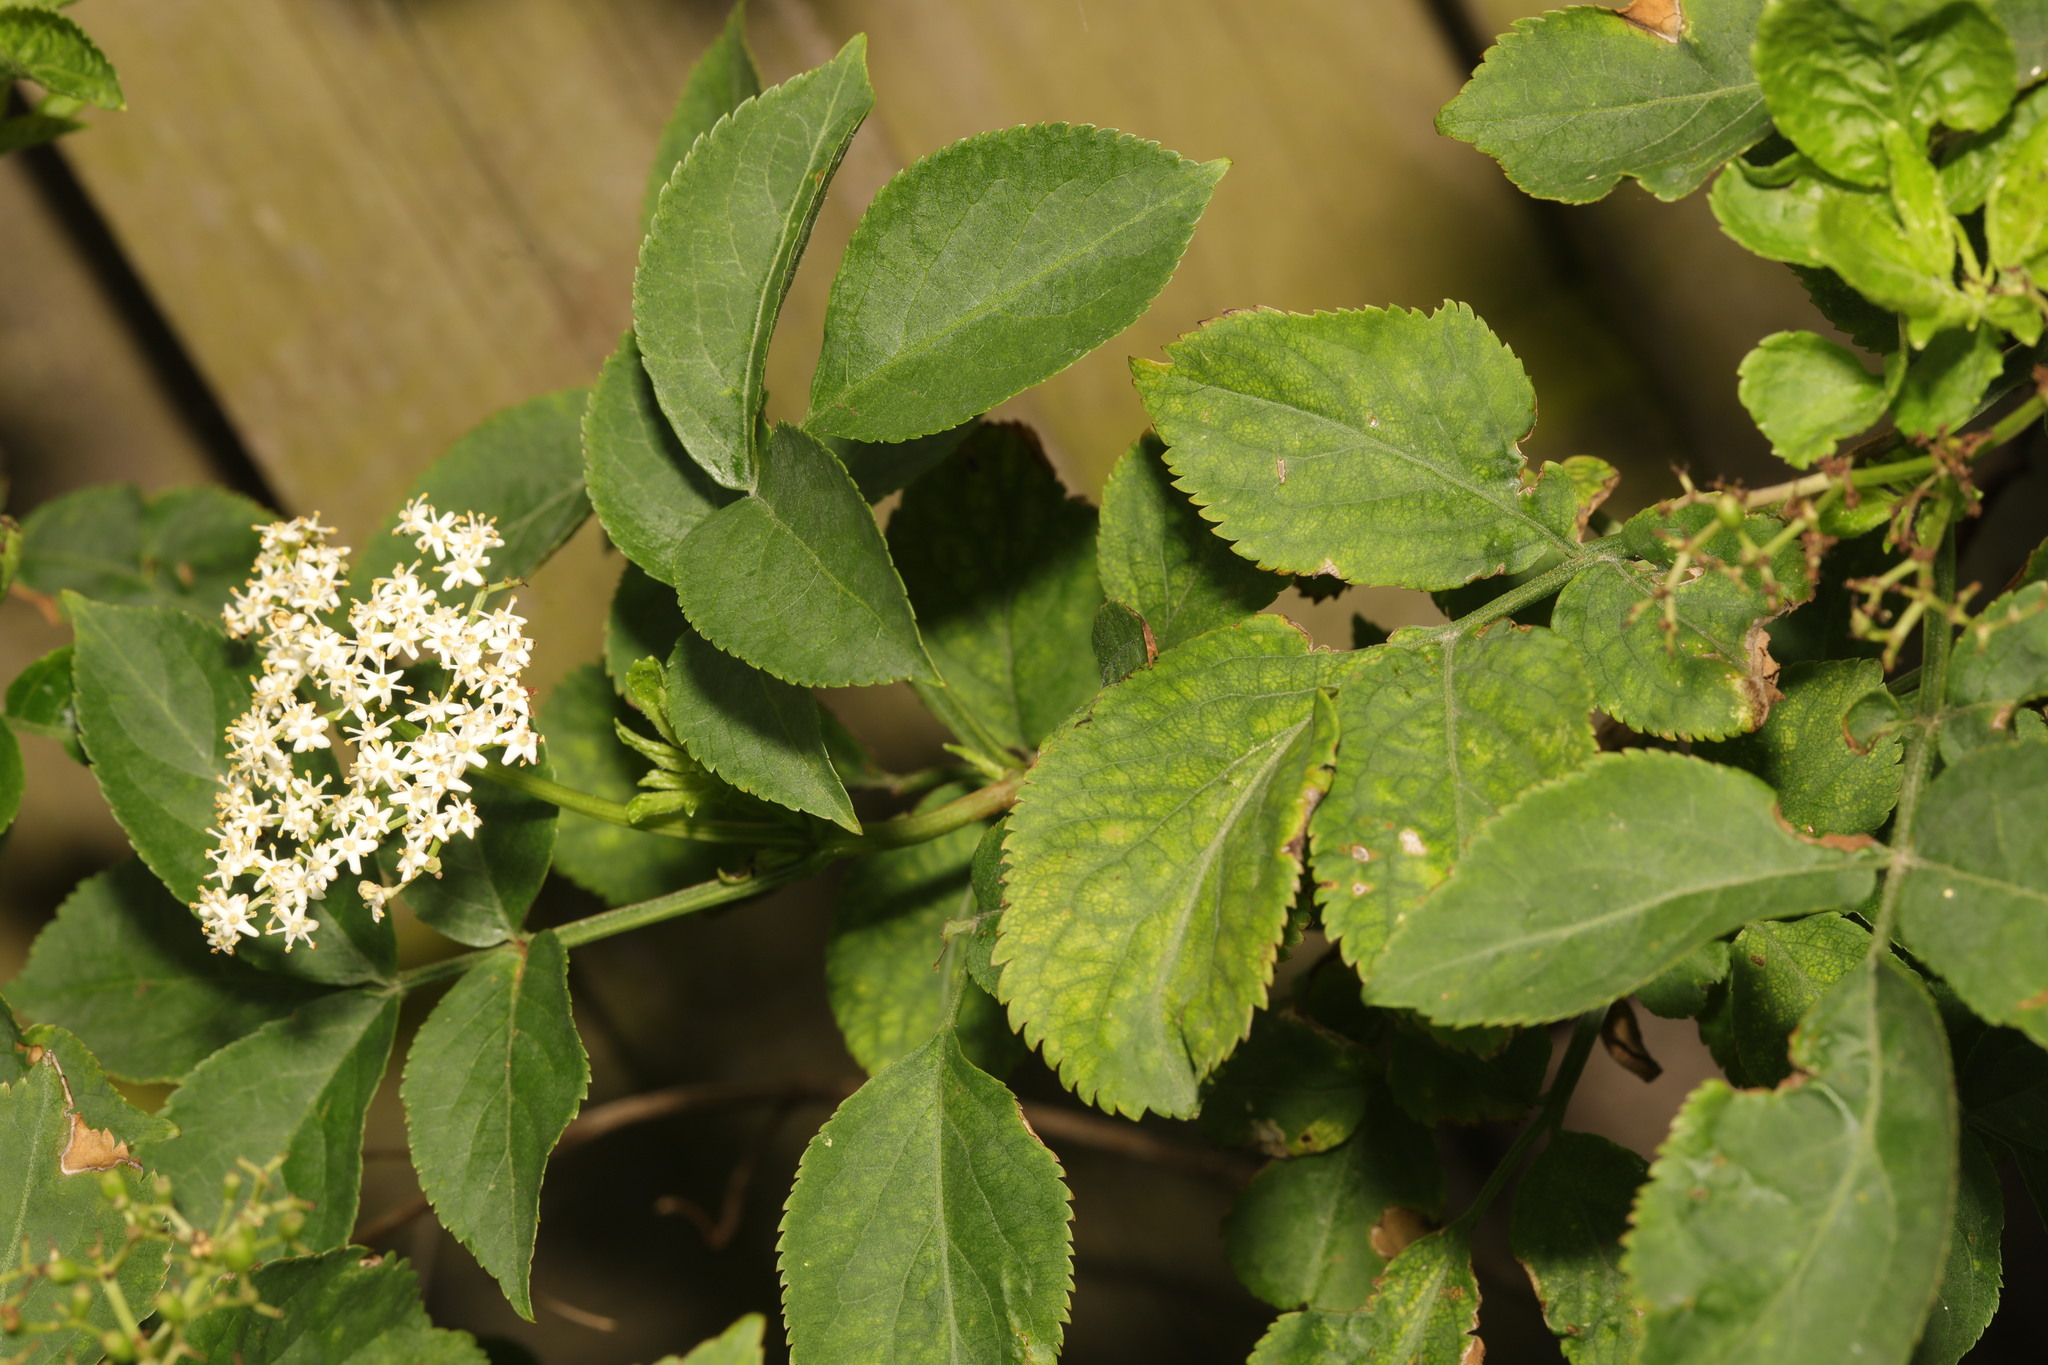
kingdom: Plantae
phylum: Tracheophyta
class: Magnoliopsida
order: Lamiales
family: Oleaceae
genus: Ligustrum
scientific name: Ligustrum ovalifolium
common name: California privet
